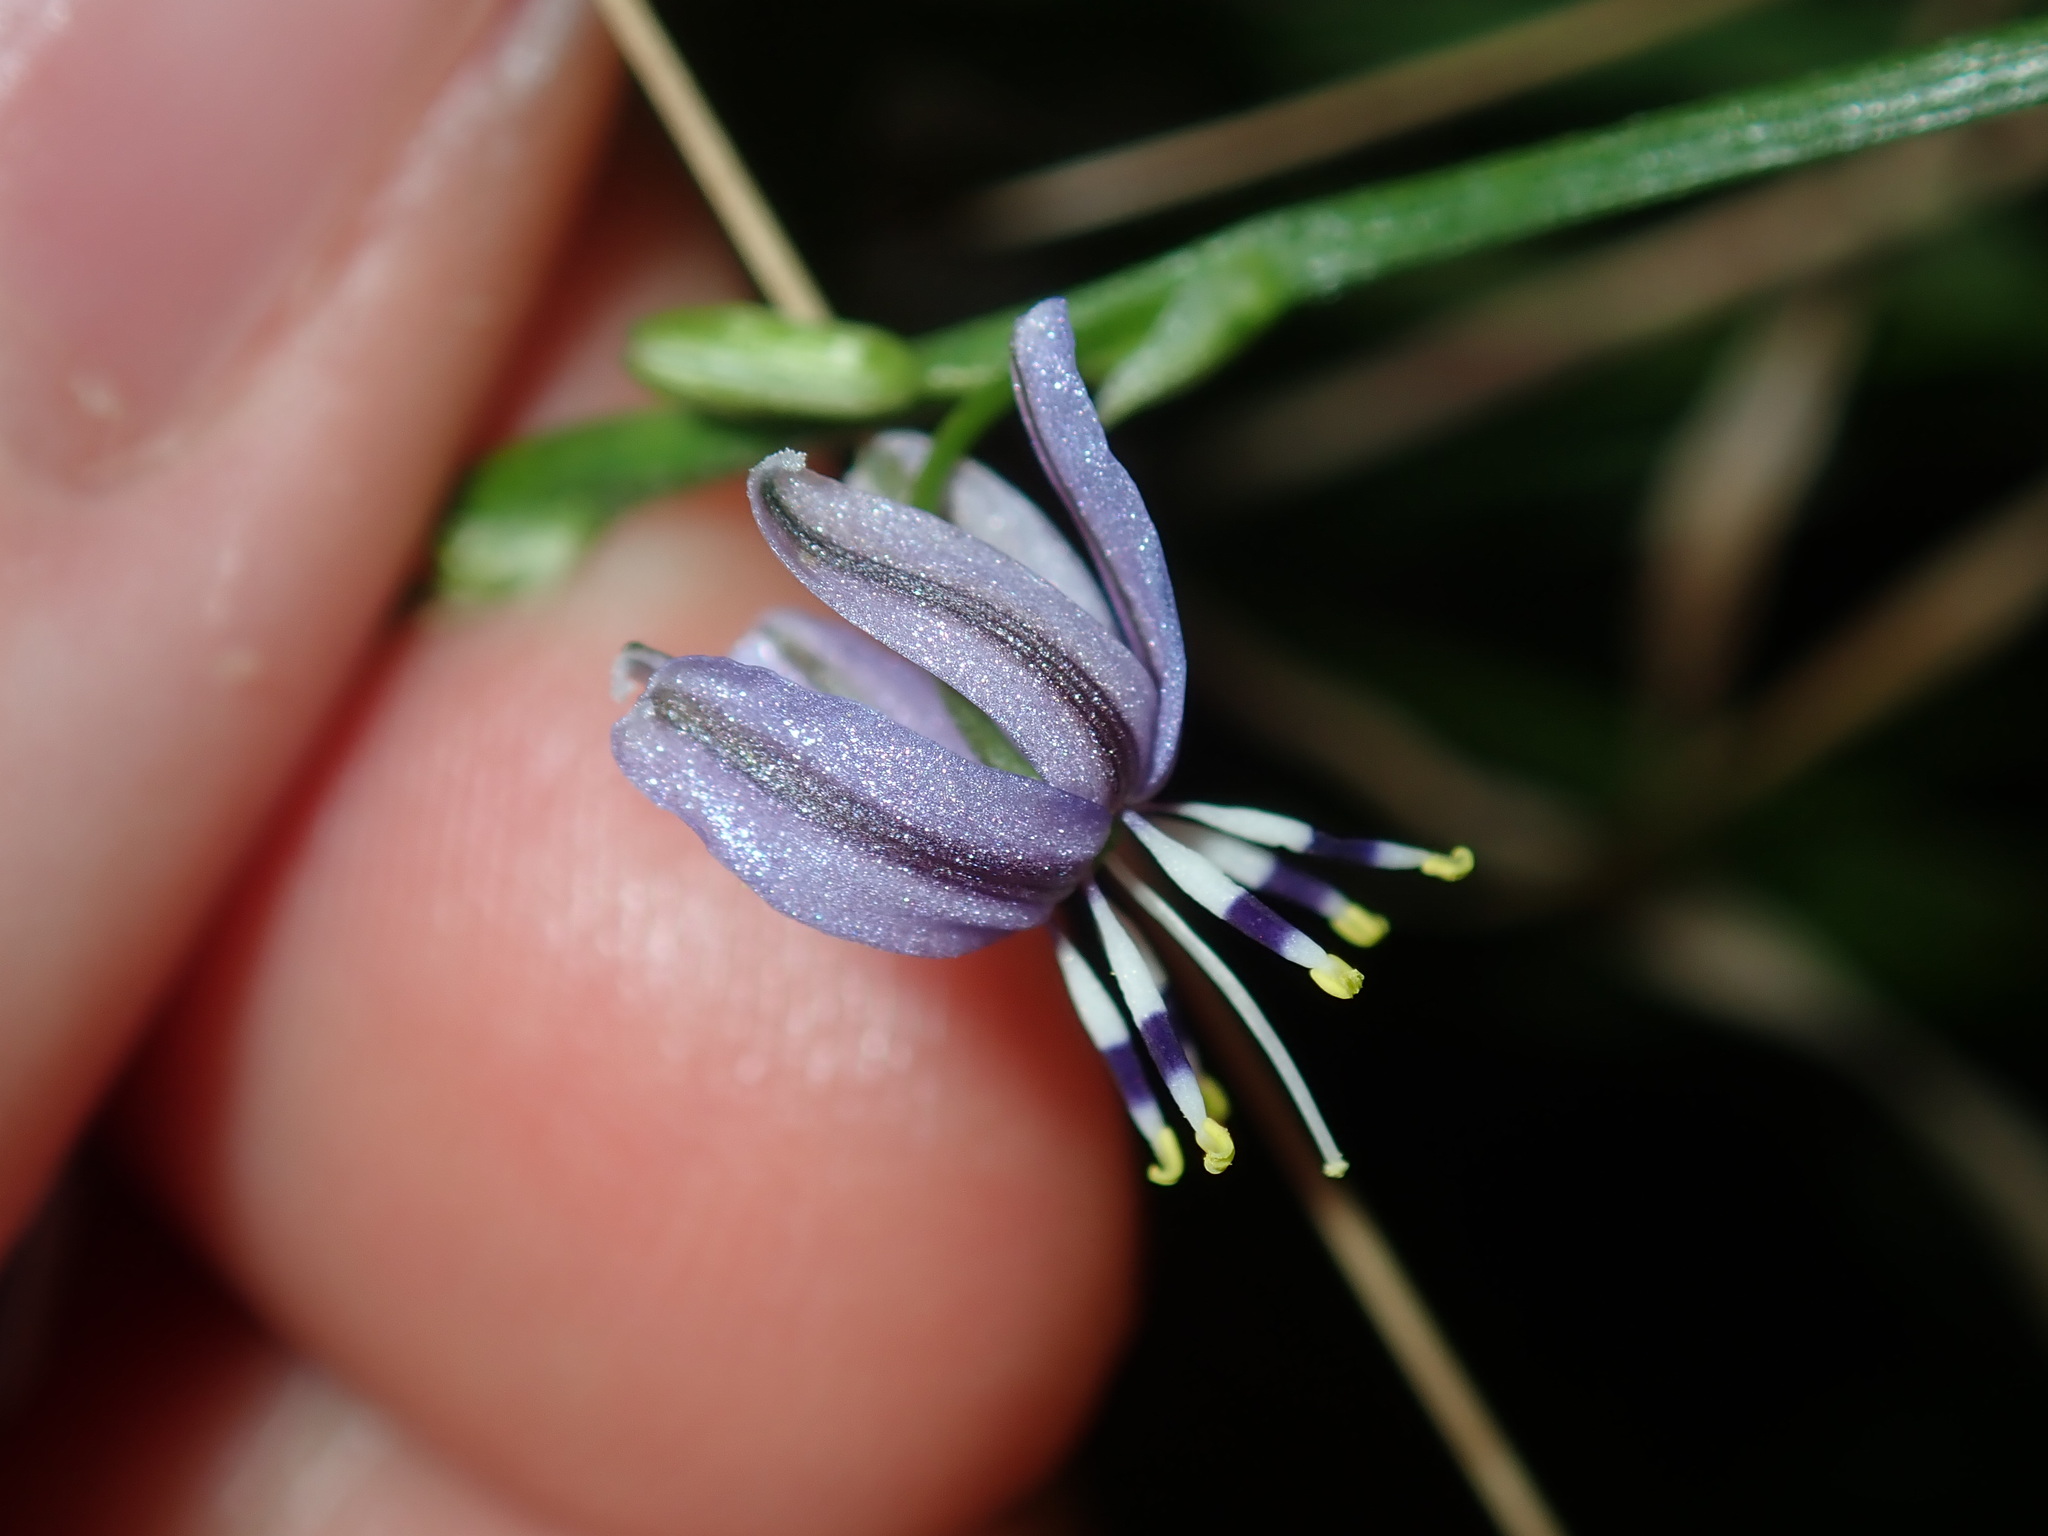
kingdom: Plantae
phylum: Tracheophyta
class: Liliopsida
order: Asparagales
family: Asphodelaceae
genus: Caesia
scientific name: Caesia parviflora
